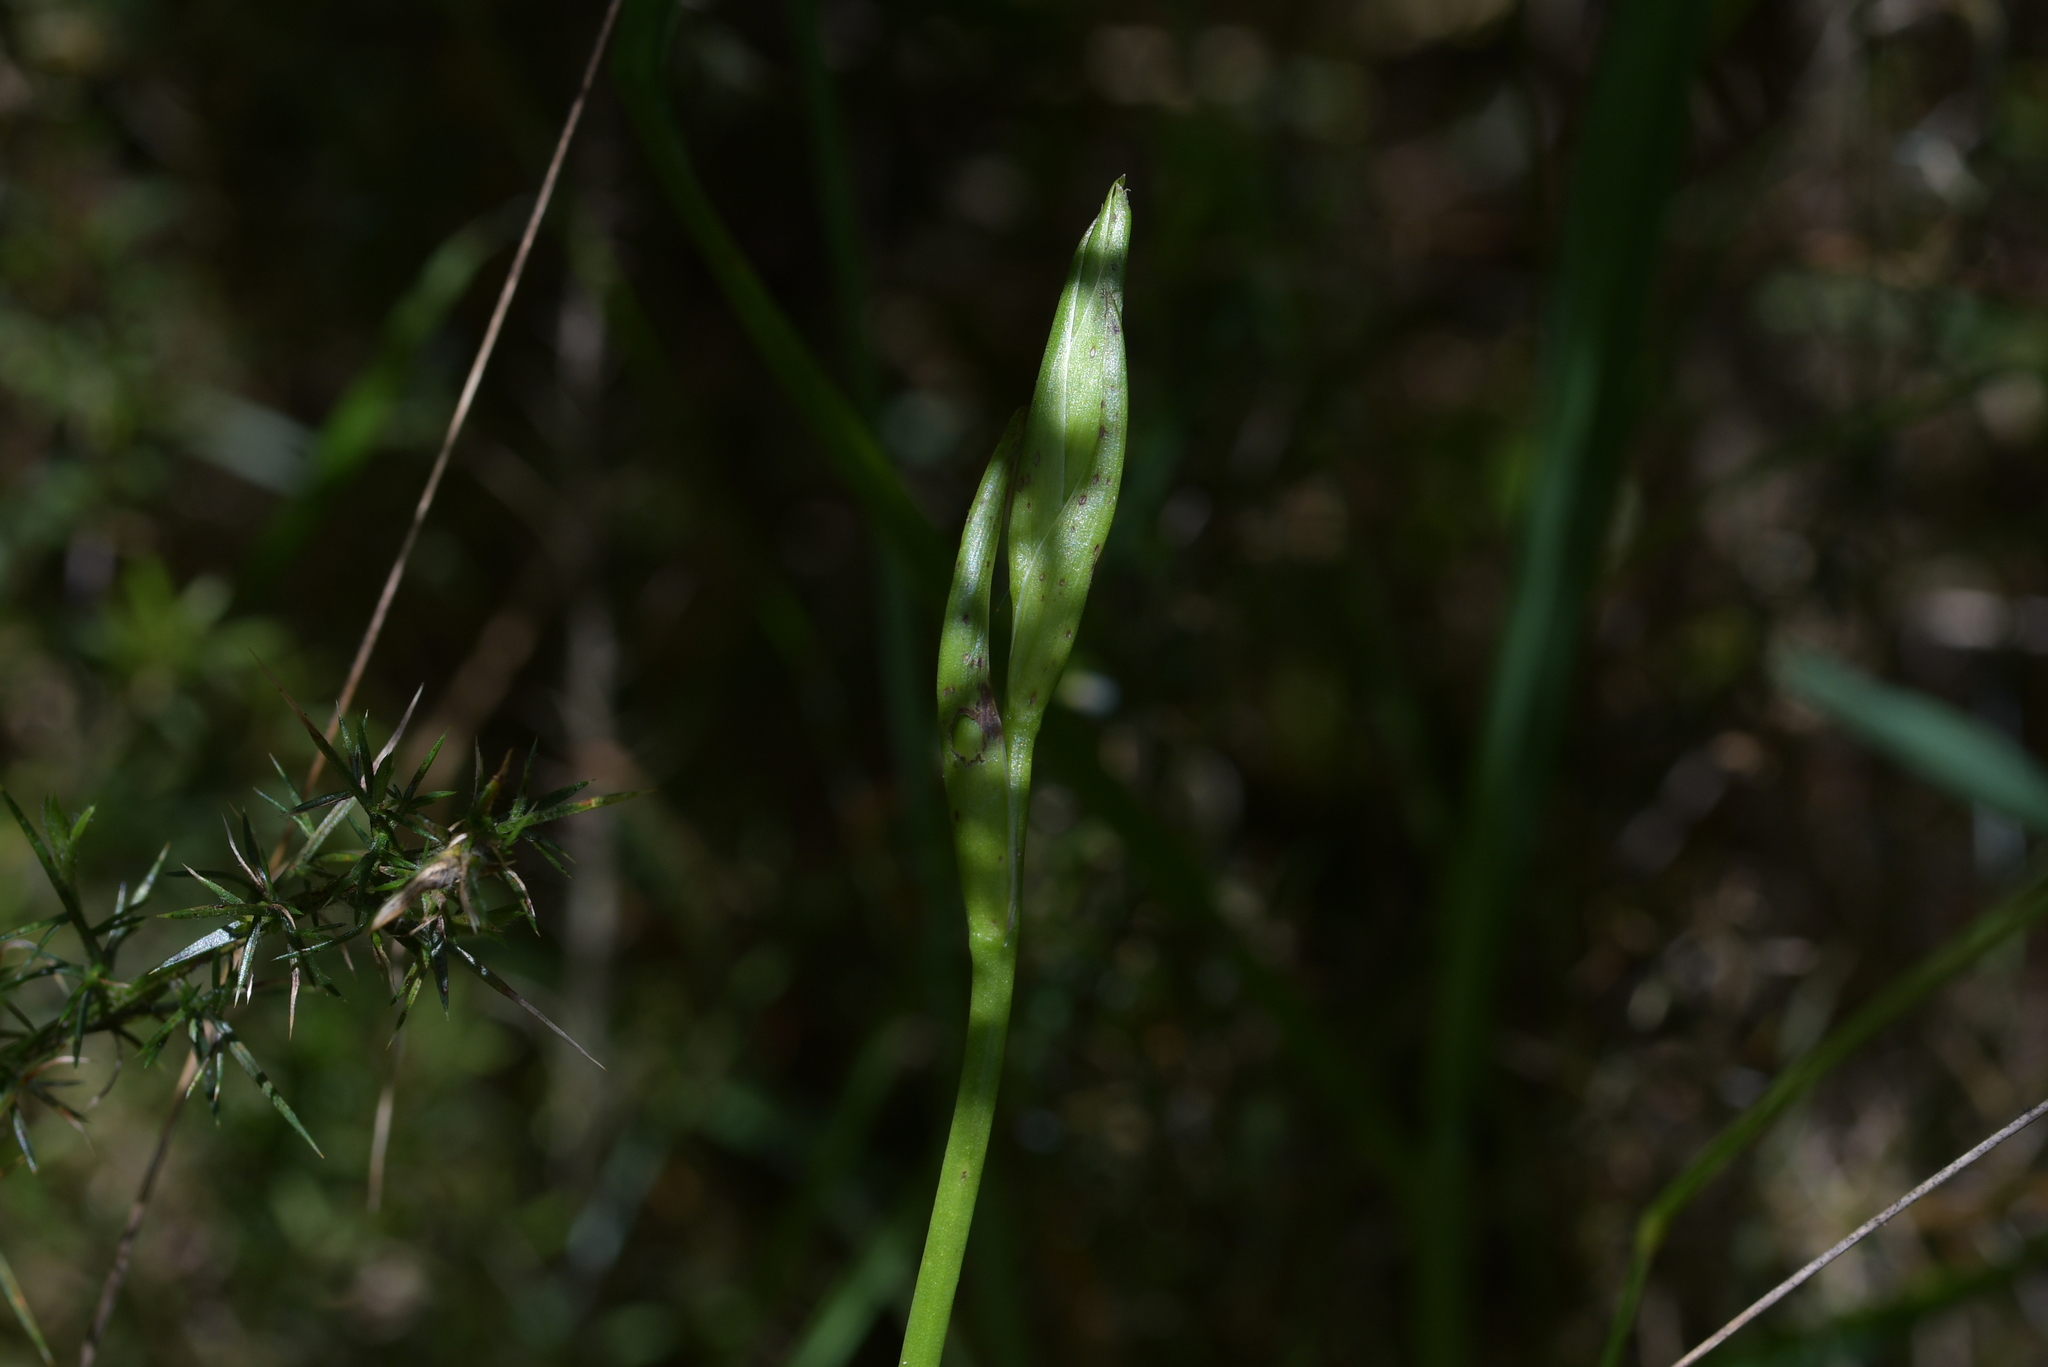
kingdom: Plantae
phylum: Tracheophyta
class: Liliopsida
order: Asparagales
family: Orchidaceae
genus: Orthoceras
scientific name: Orthoceras novae-zeelandiae
